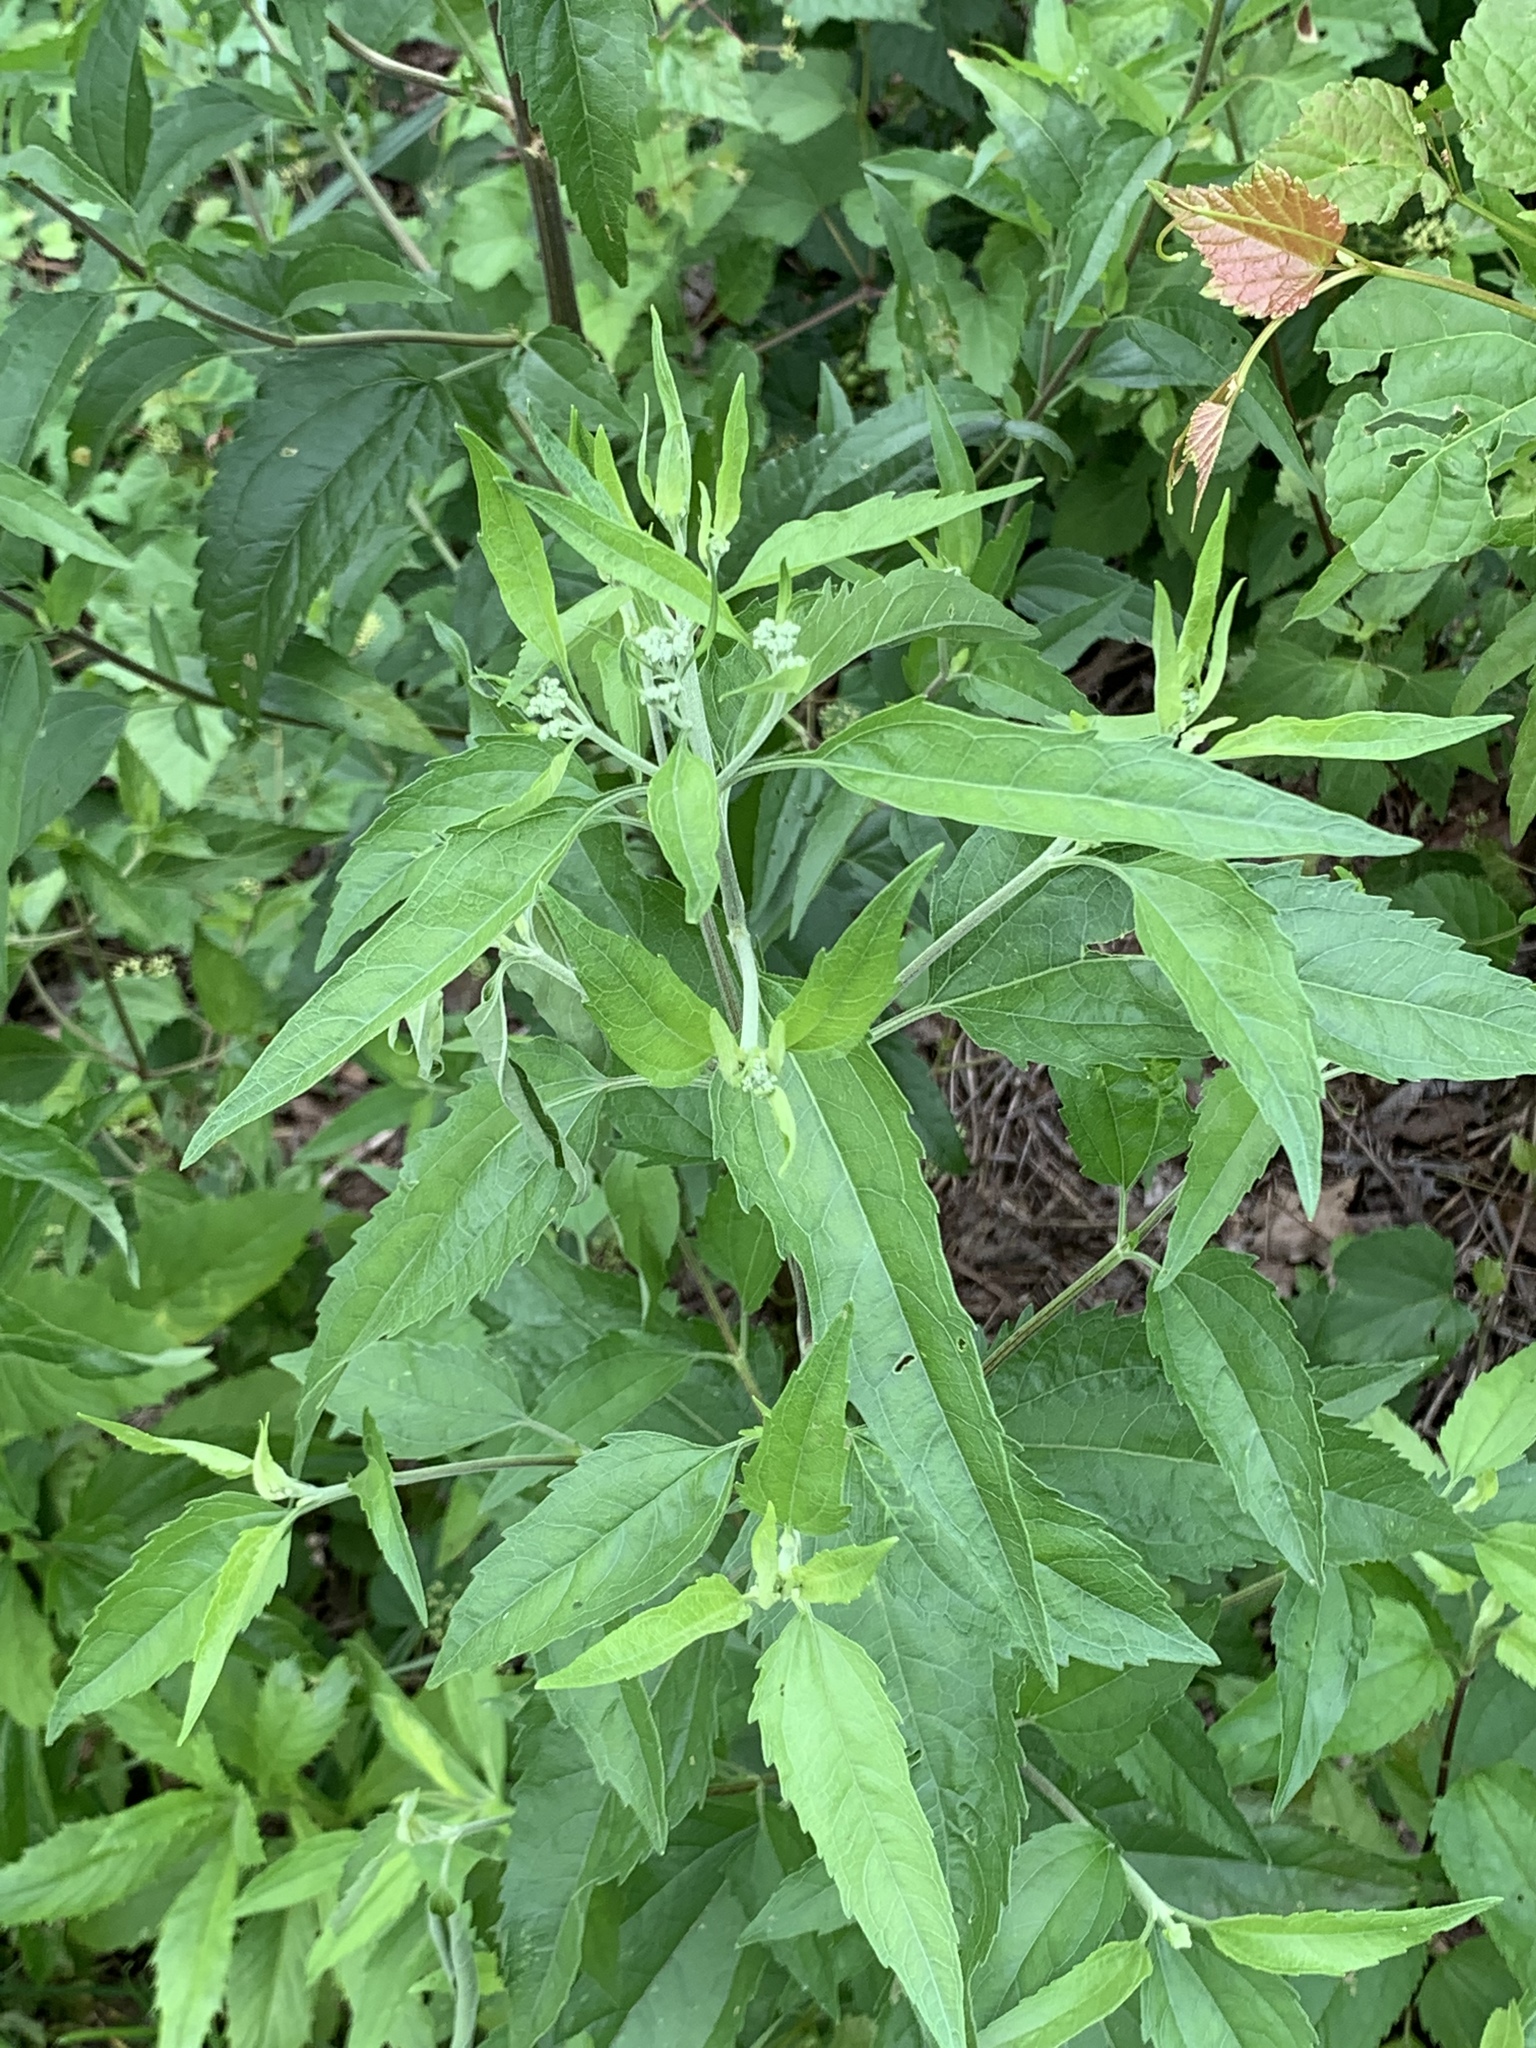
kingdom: Plantae
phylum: Tracheophyta
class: Magnoliopsida
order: Asterales
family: Asteraceae
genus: Eupatorium
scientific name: Eupatorium serotinum
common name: Late boneset
